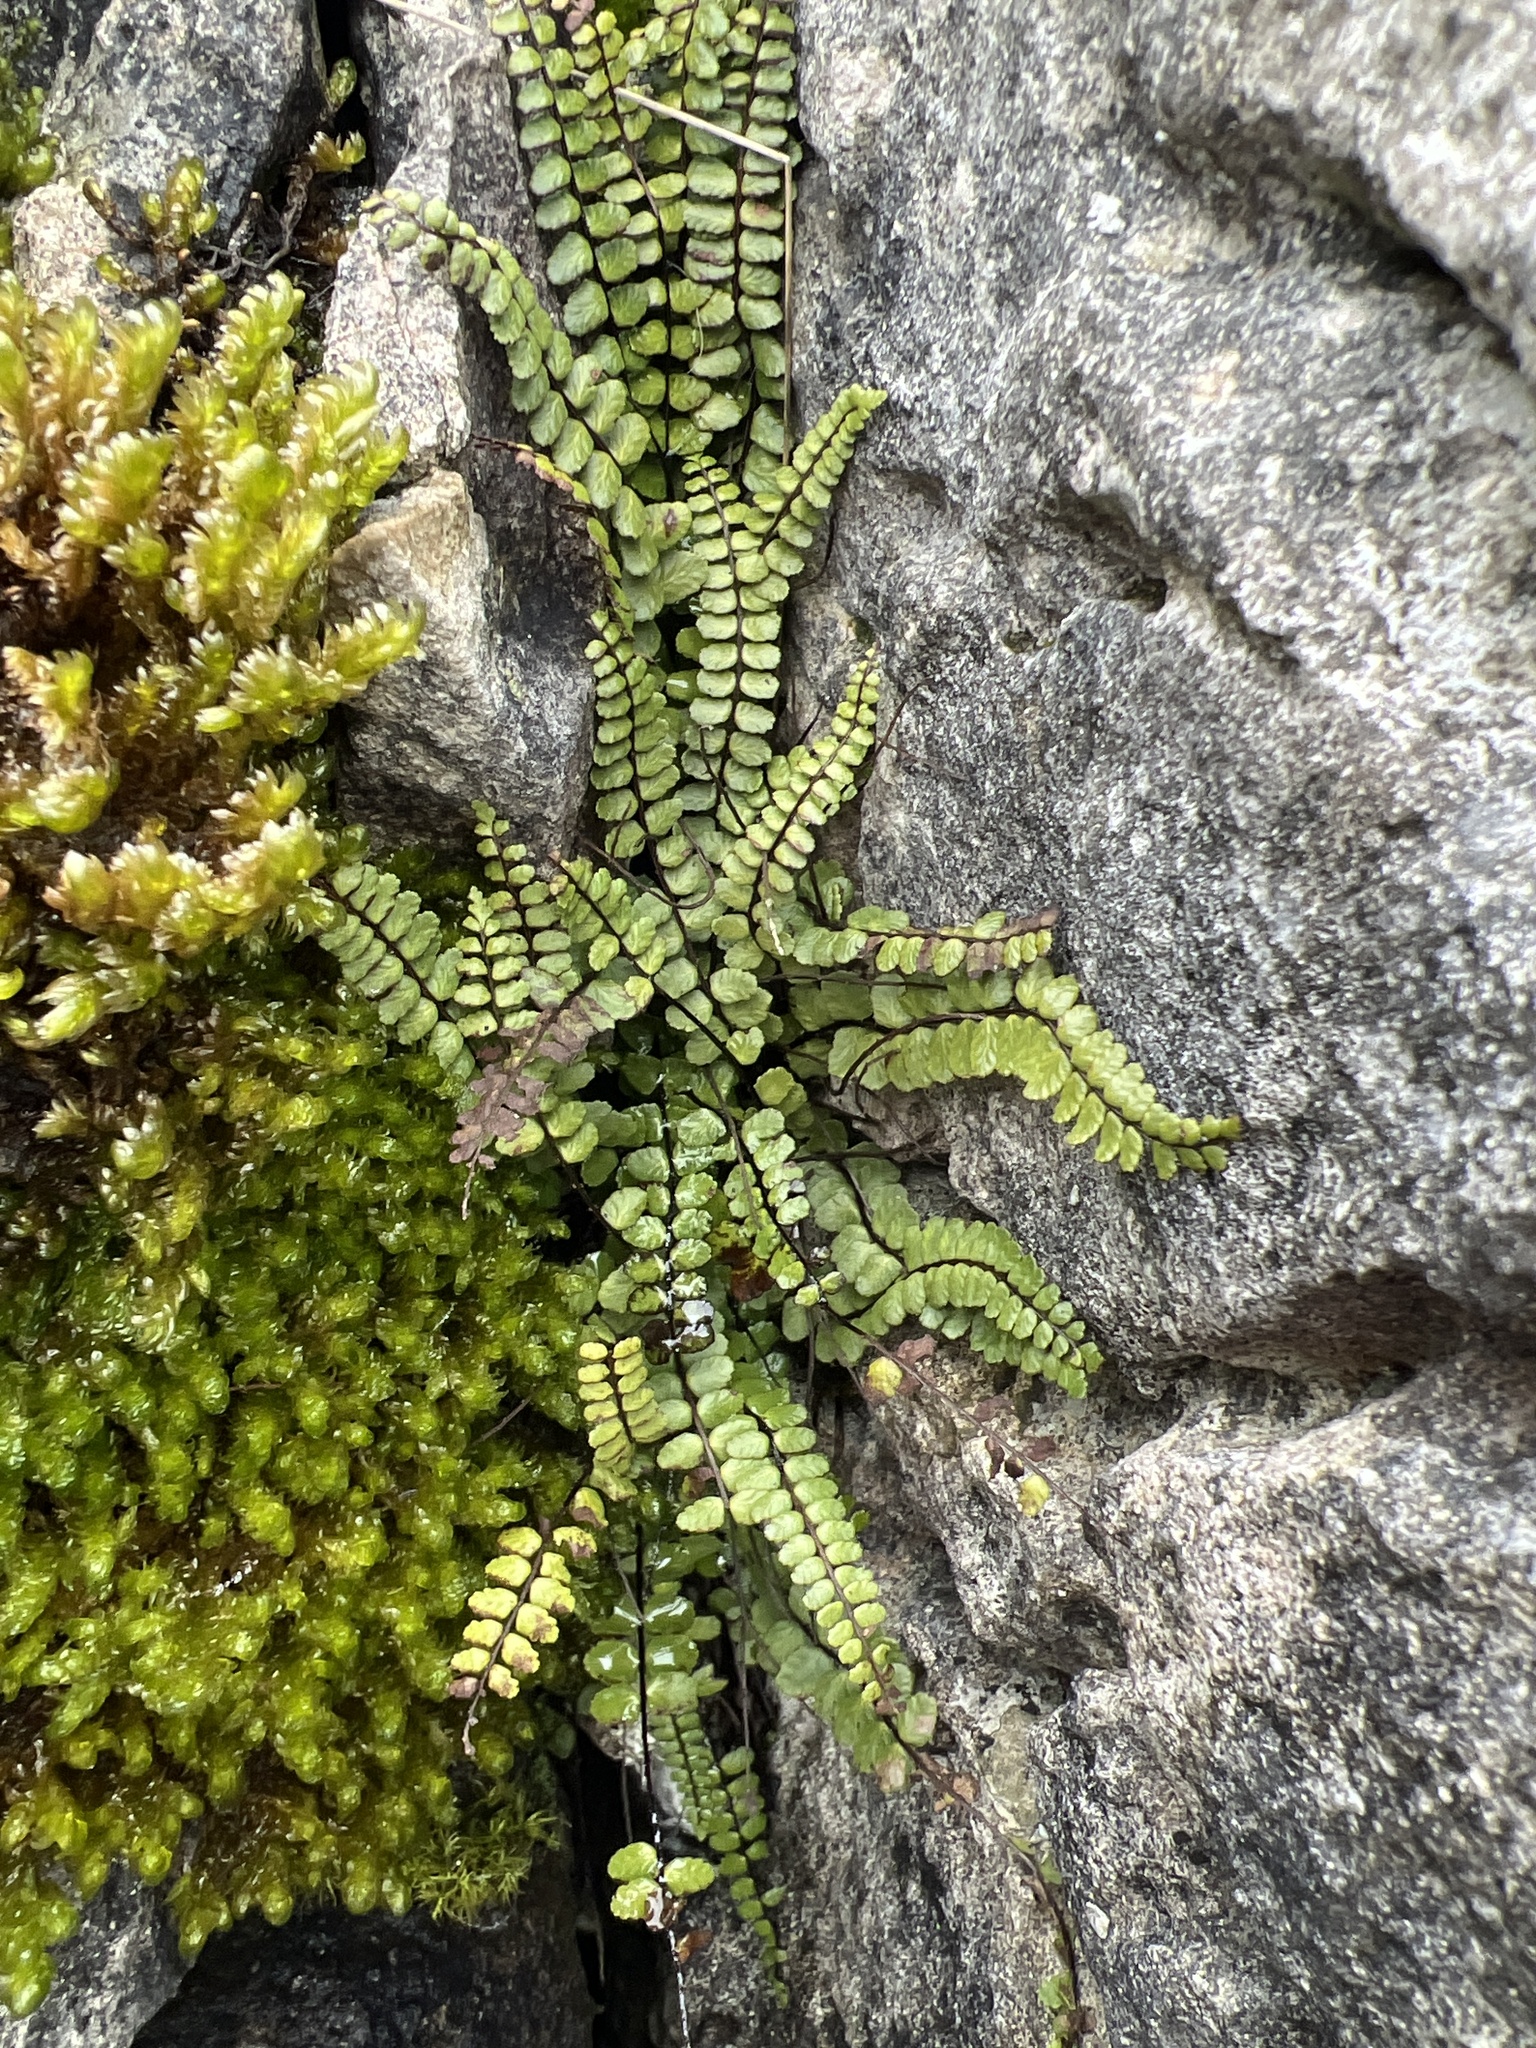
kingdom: Plantae
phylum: Tracheophyta
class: Polypodiopsida
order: Polypodiales
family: Aspleniaceae
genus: Asplenium
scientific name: Asplenium trichomanes
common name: Maidenhair spleenwort
